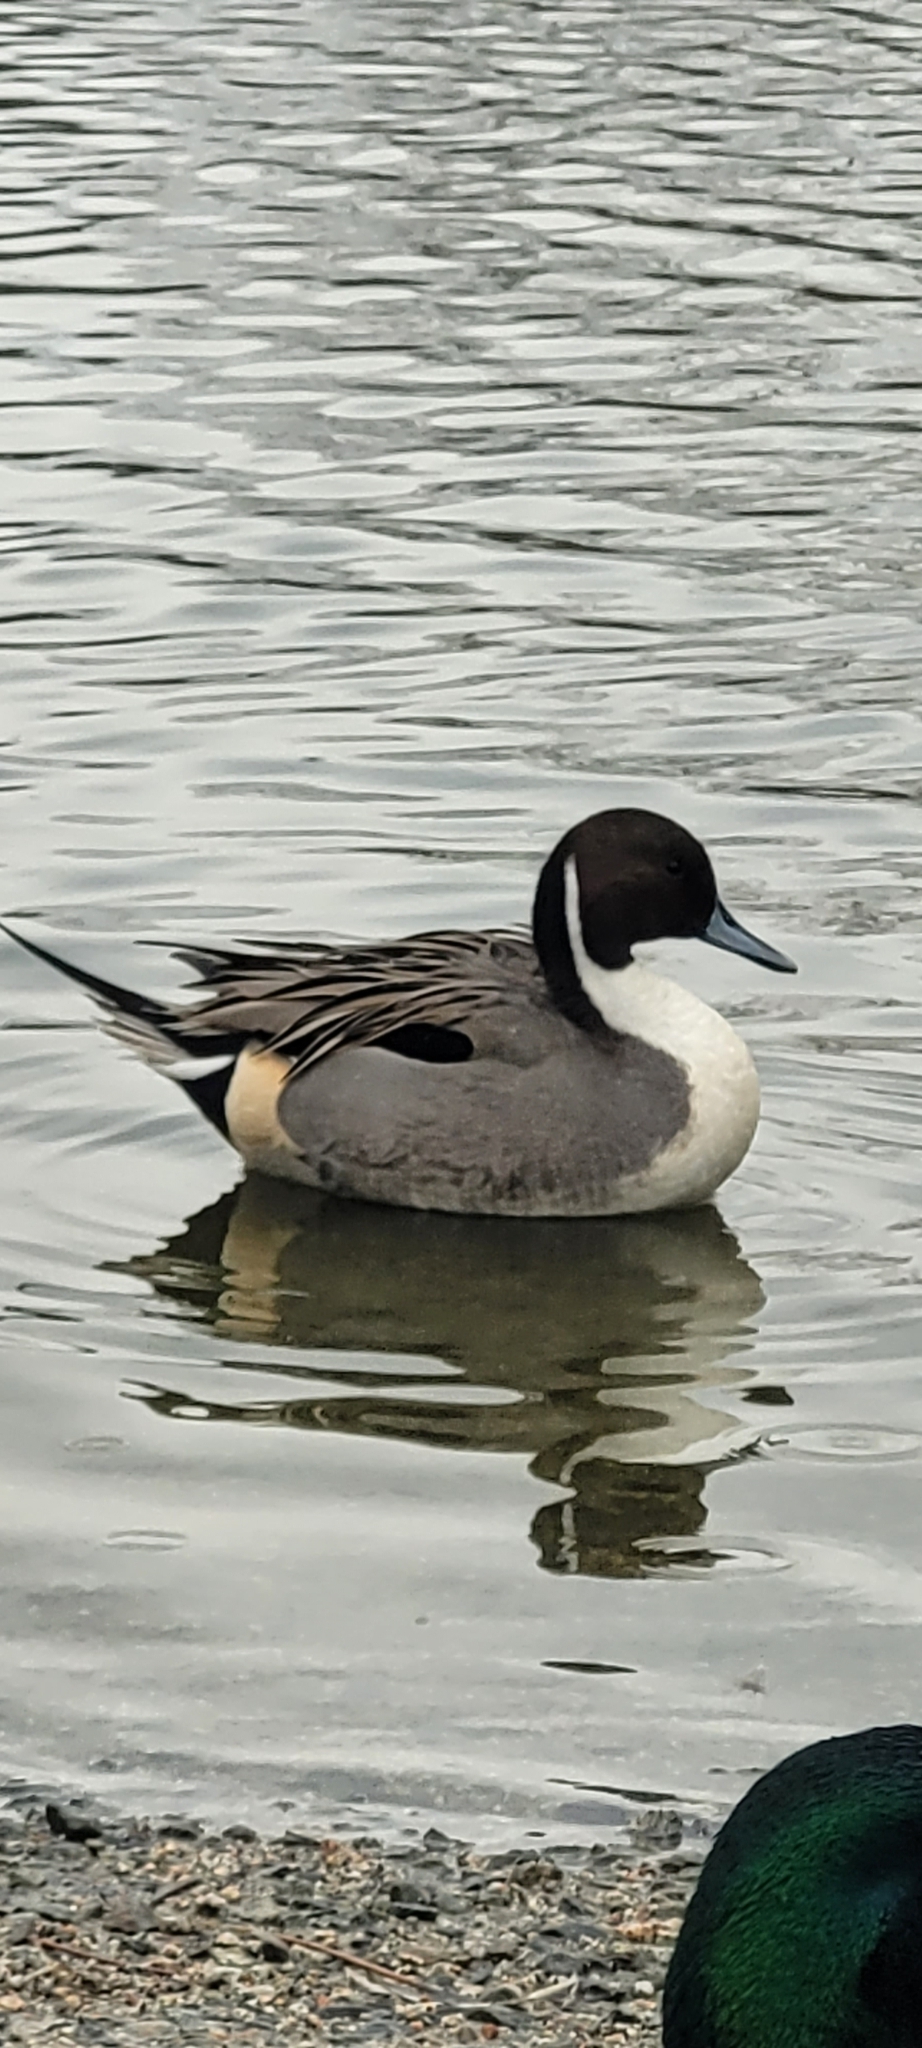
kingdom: Animalia
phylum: Chordata
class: Aves
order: Anseriformes
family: Anatidae
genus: Anas
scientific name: Anas acuta
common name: Northern pintail
